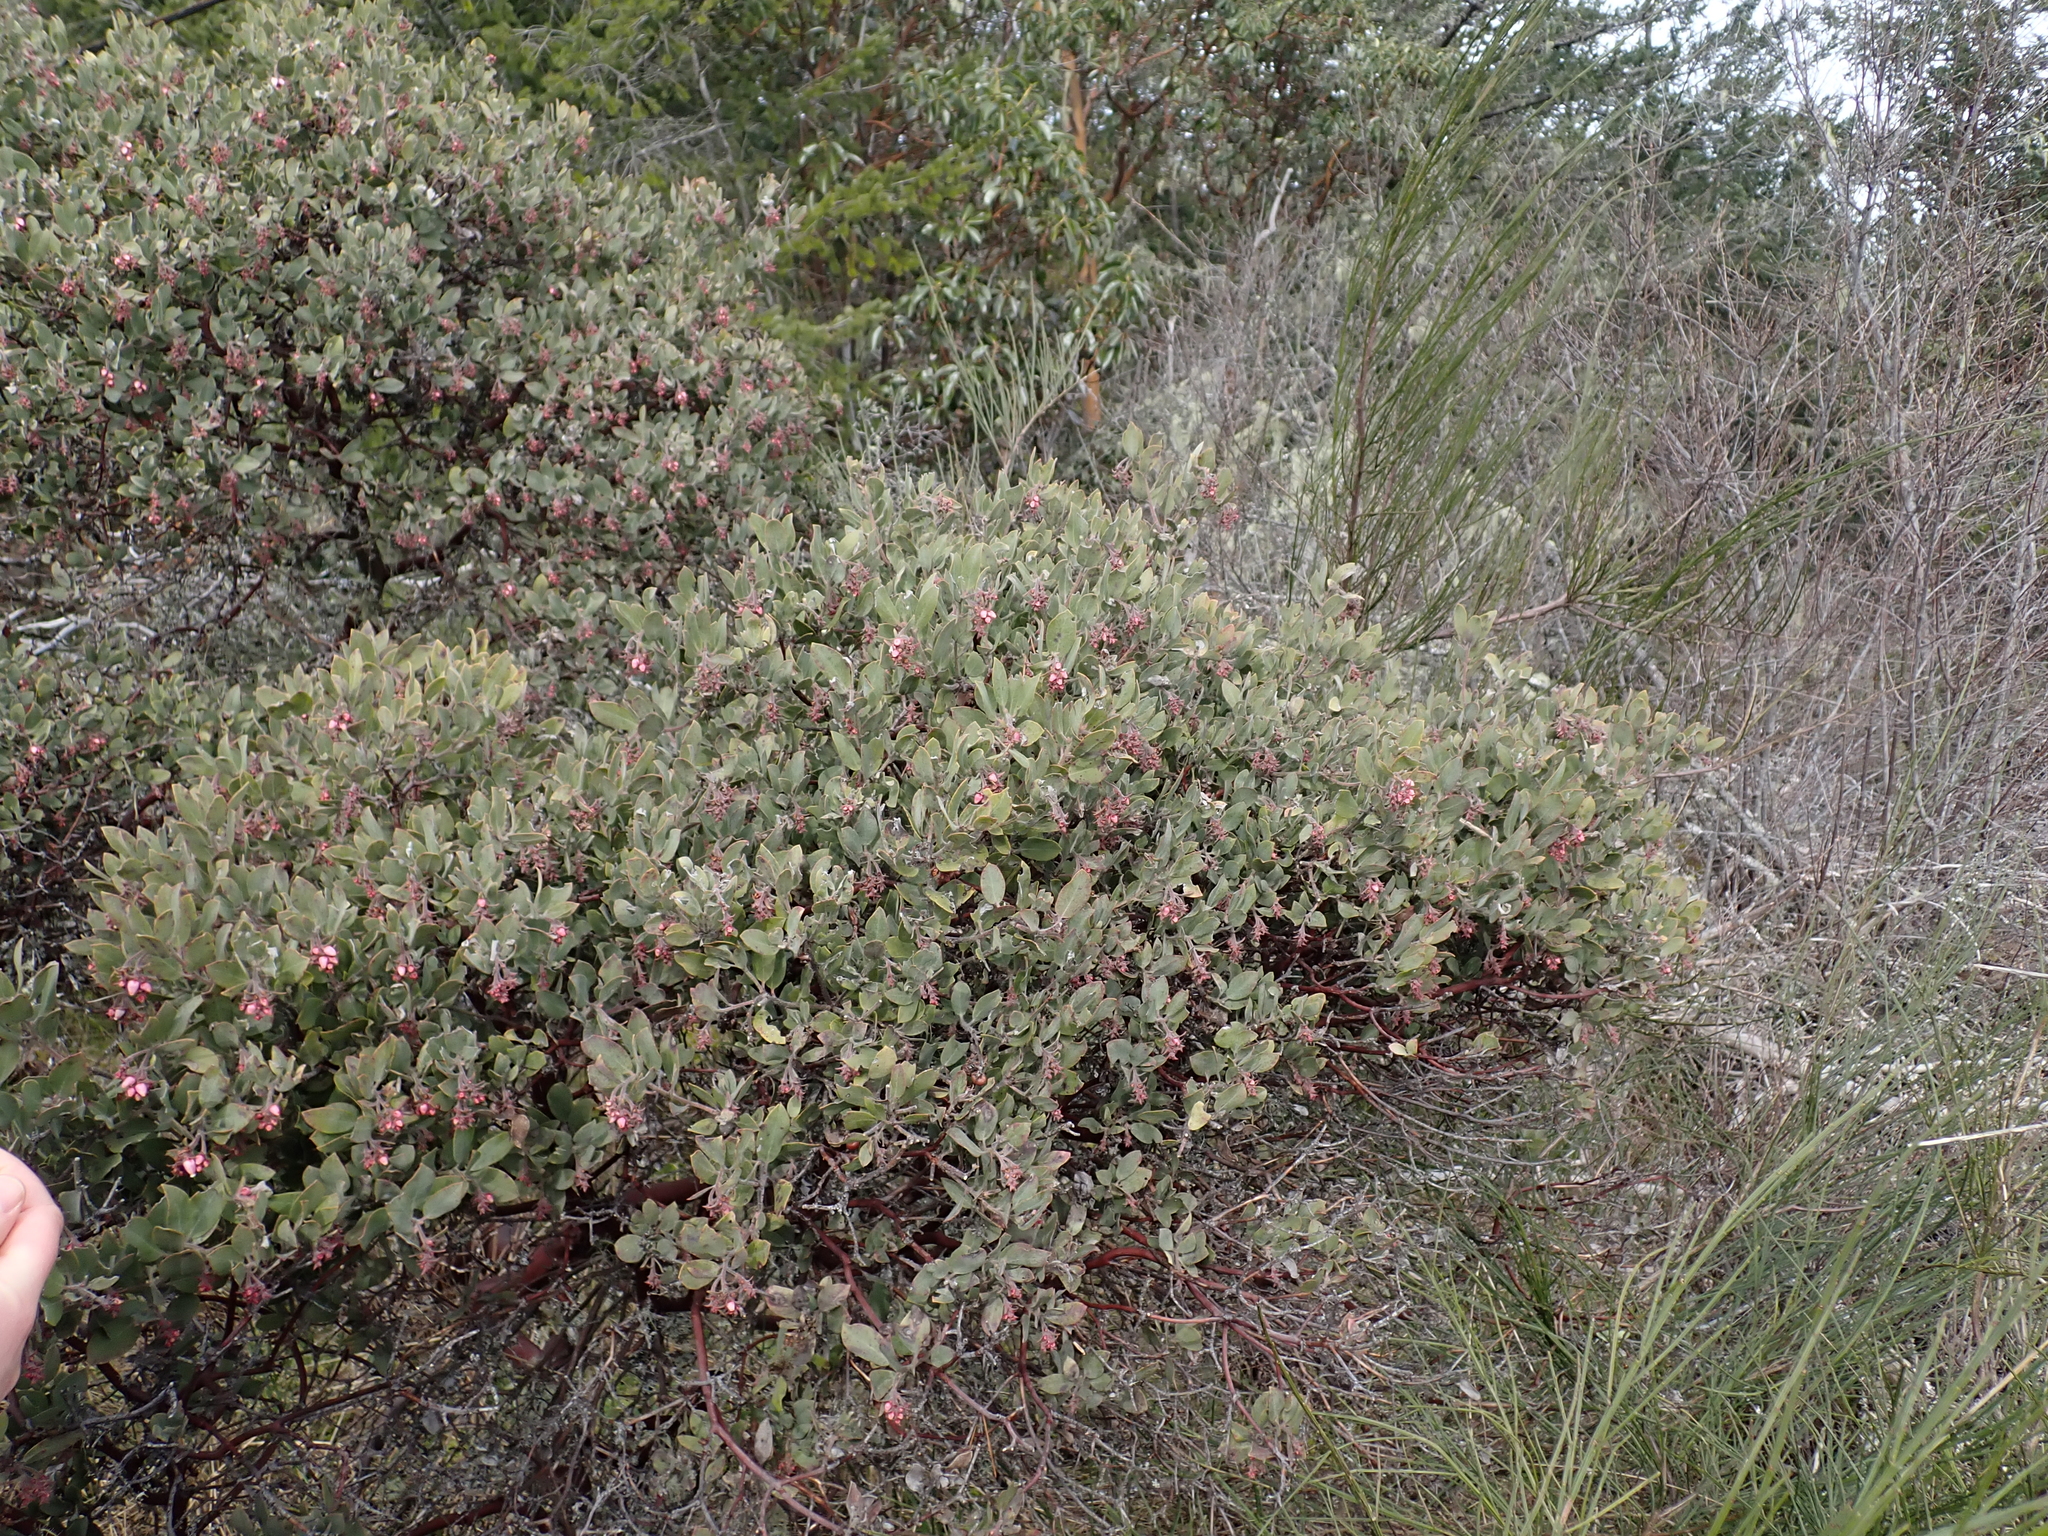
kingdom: Plantae
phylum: Tracheophyta
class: Magnoliopsida
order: Ericales
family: Ericaceae
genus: Arctostaphylos
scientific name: Arctostaphylos columbiana
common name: Bristly bearberry
